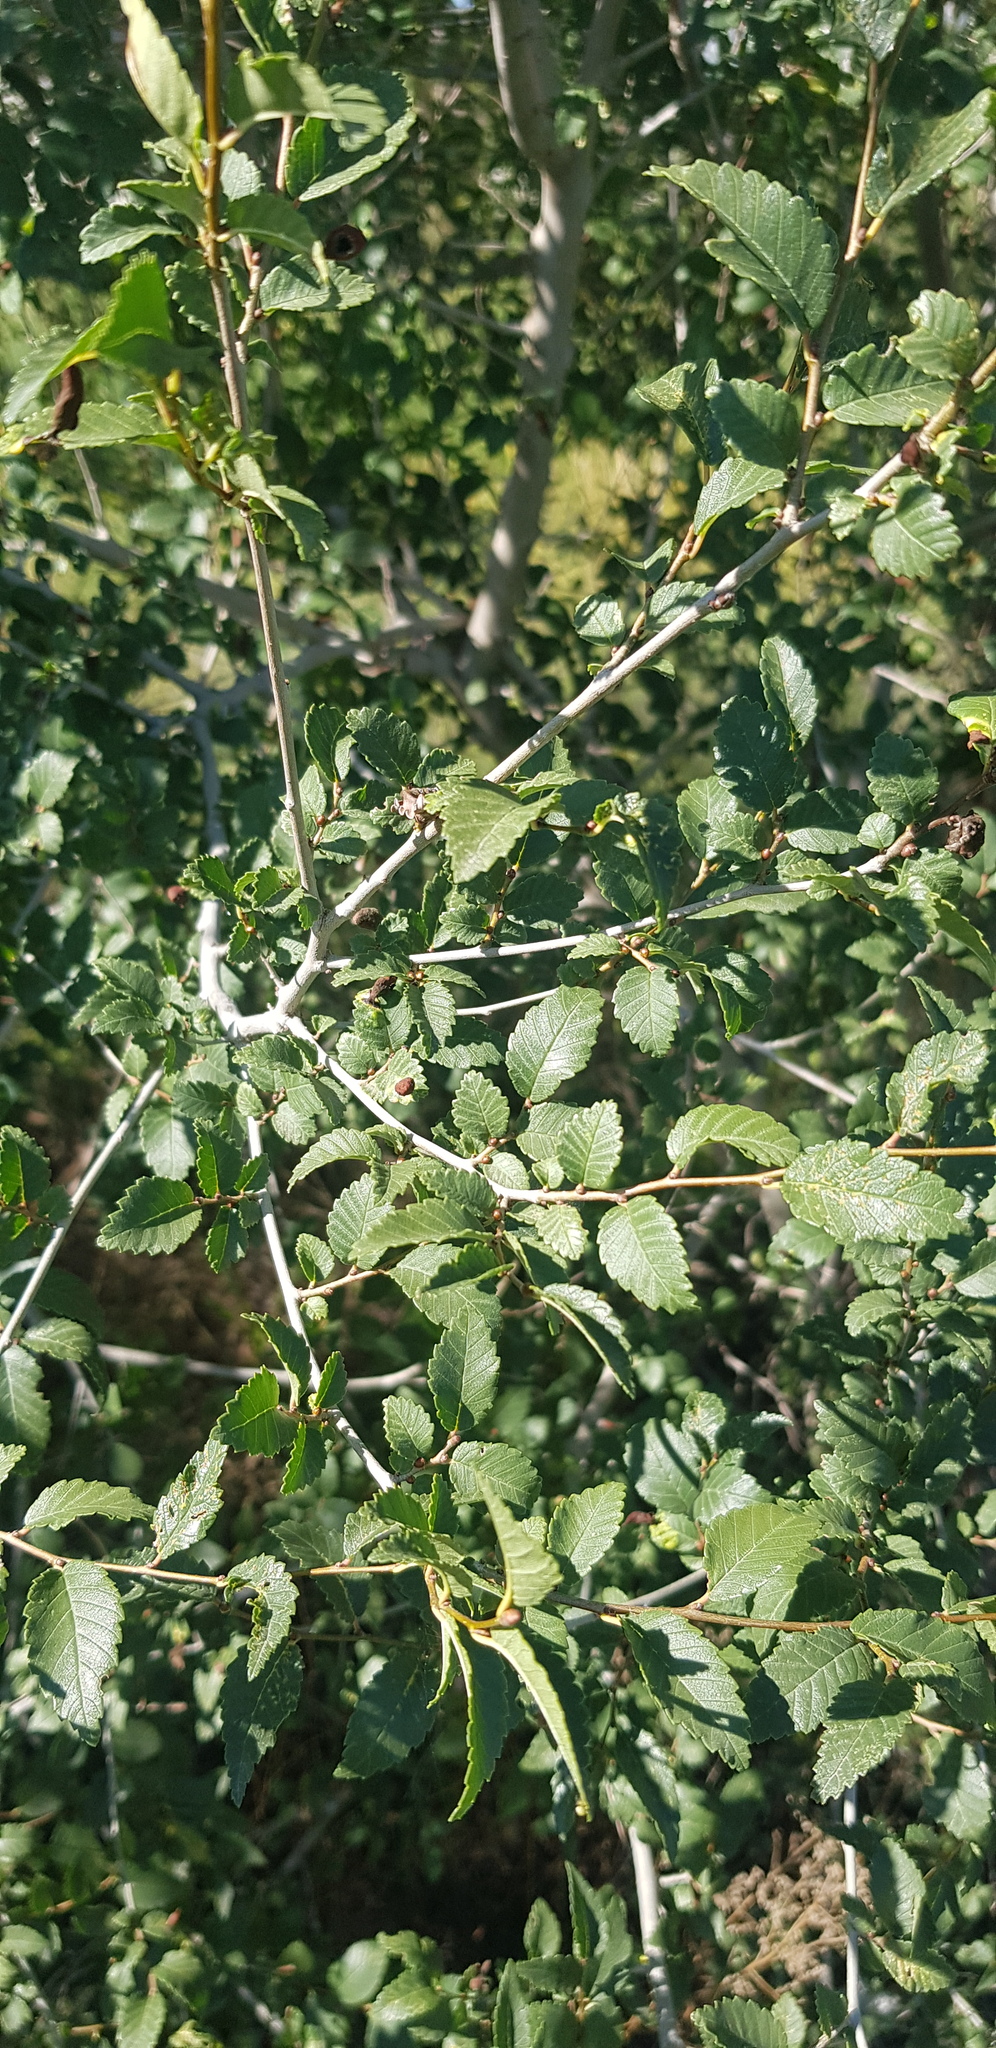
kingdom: Plantae
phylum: Tracheophyta
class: Magnoliopsida
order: Rosales
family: Ulmaceae
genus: Ulmus
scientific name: Ulmus pumila
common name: Siberian elm
